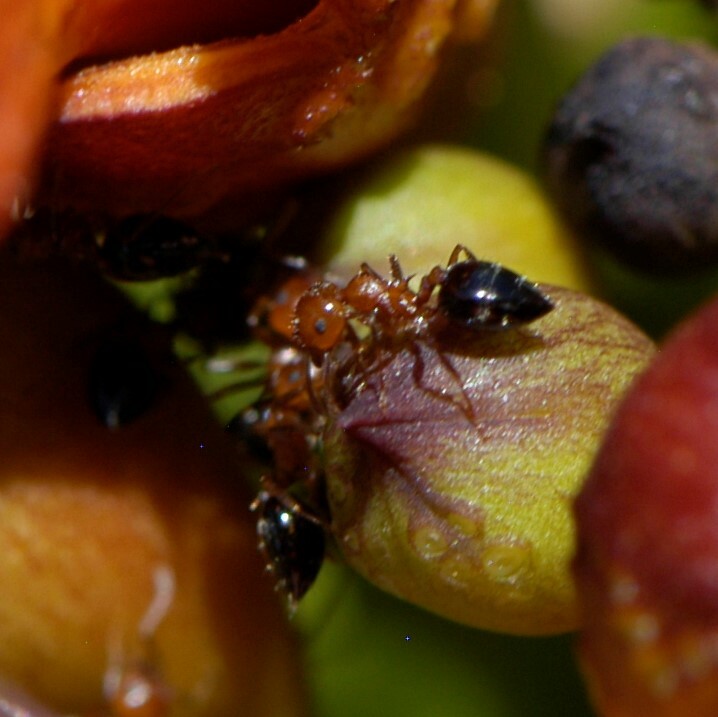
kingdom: Animalia
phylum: Arthropoda
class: Insecta
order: Hymenoptera
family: Formicidae
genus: Crematogaster
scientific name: Crematogaster hespera
